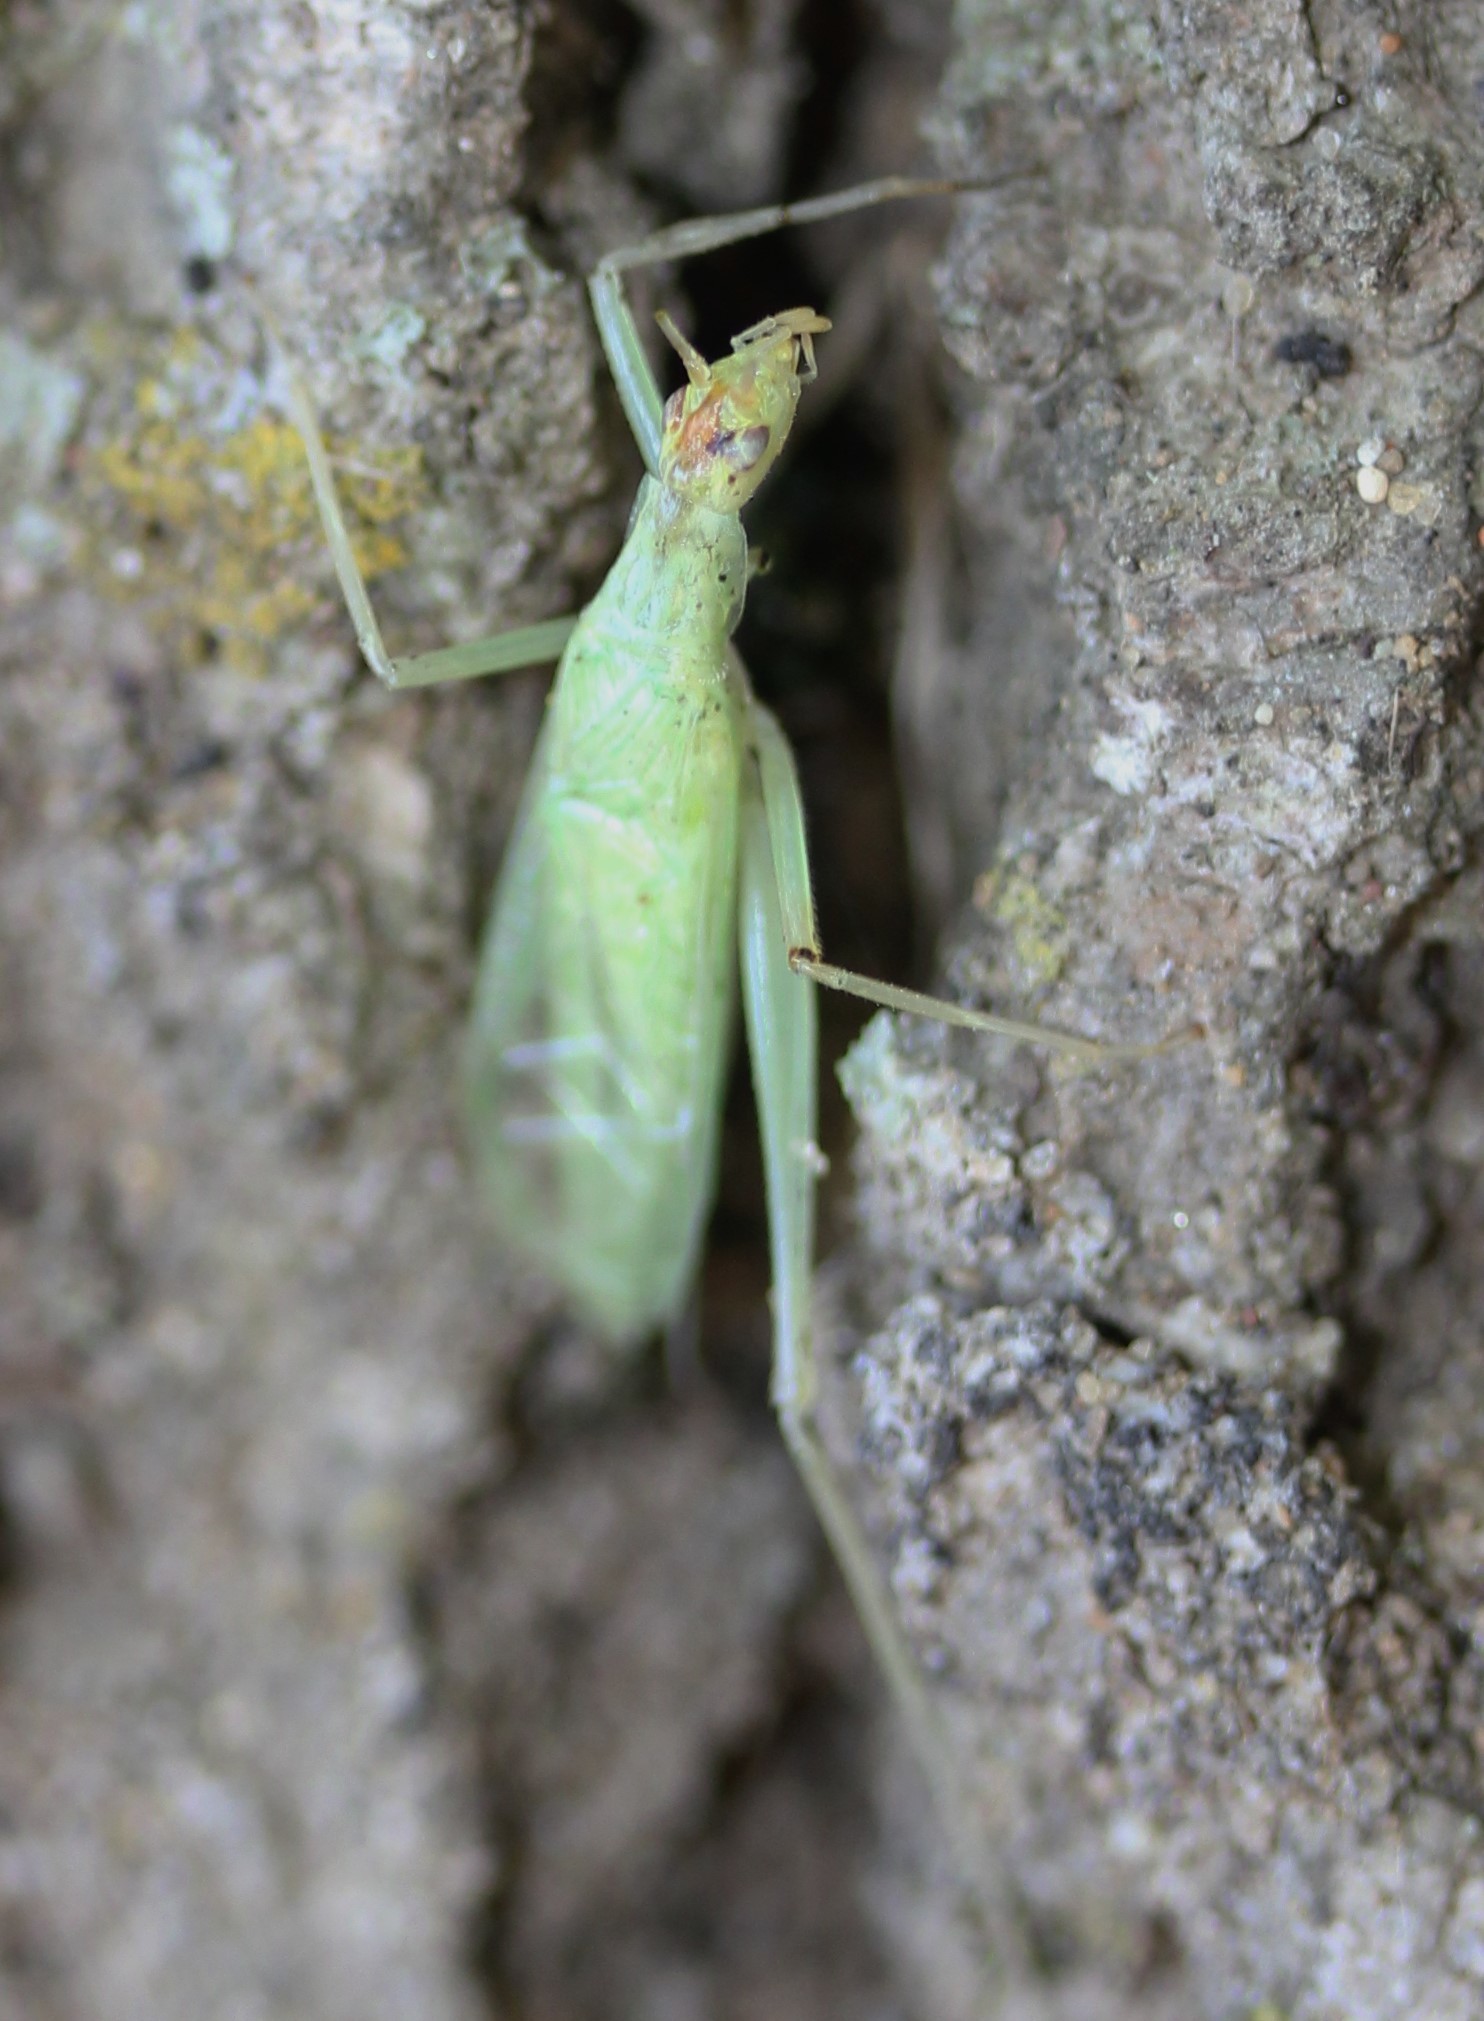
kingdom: Animalia
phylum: Arthropoda
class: Insecta
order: Orthoptera
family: Gryllidae
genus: Oecanthus
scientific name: Oecanthus niveus
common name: Narrow-winged tree cricket
